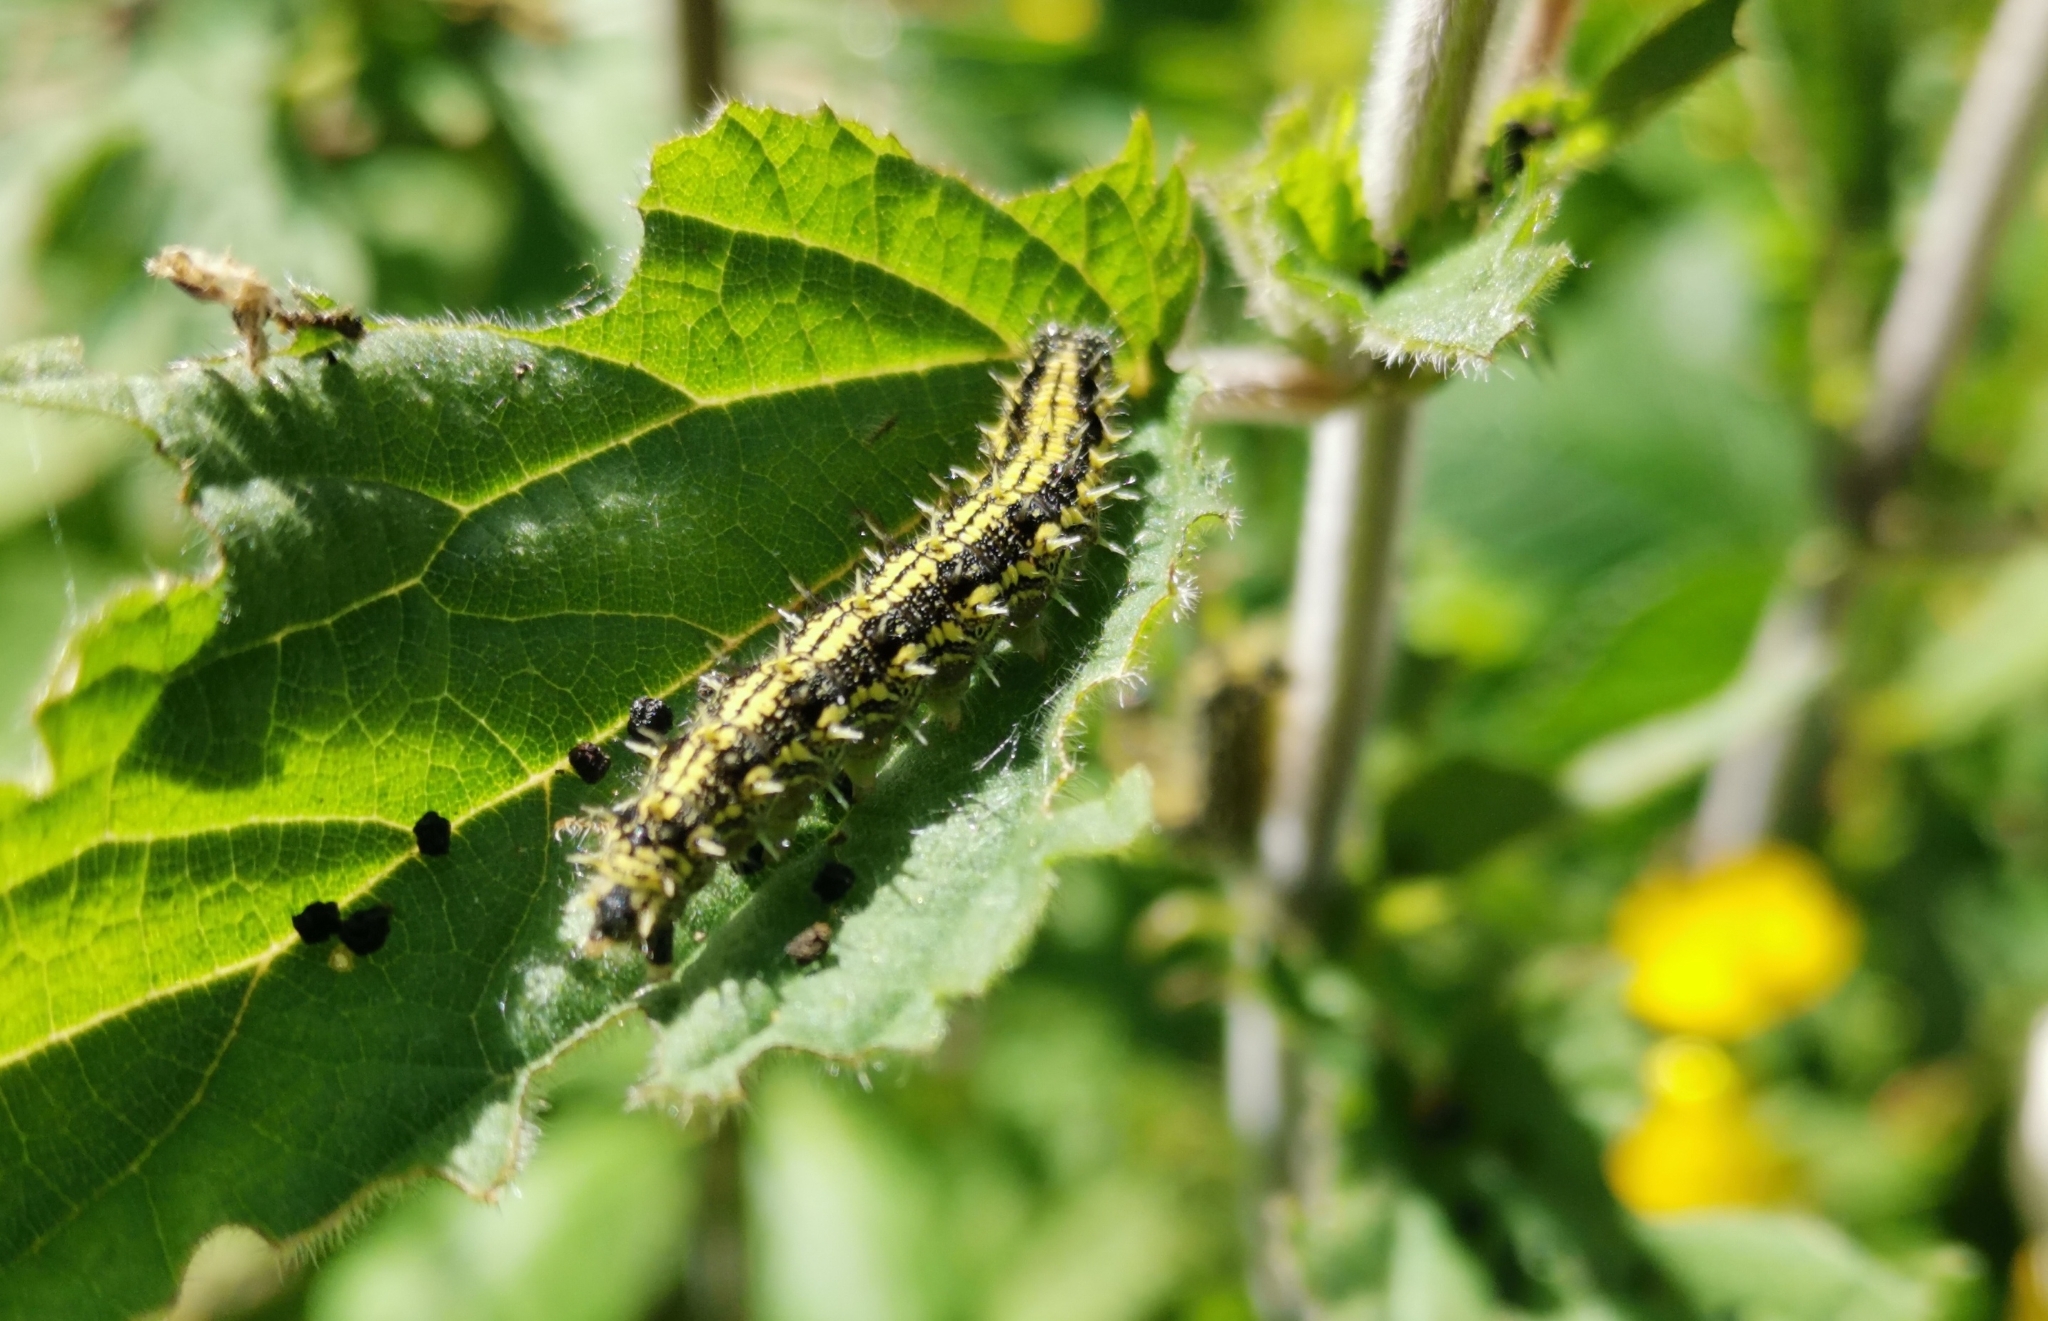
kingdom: Animalia
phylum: Arthropoda
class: Insecta
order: Lepidoptera
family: Nymphalidae
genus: Aglais
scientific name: Aglais urticae
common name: Small tortoiseshell
